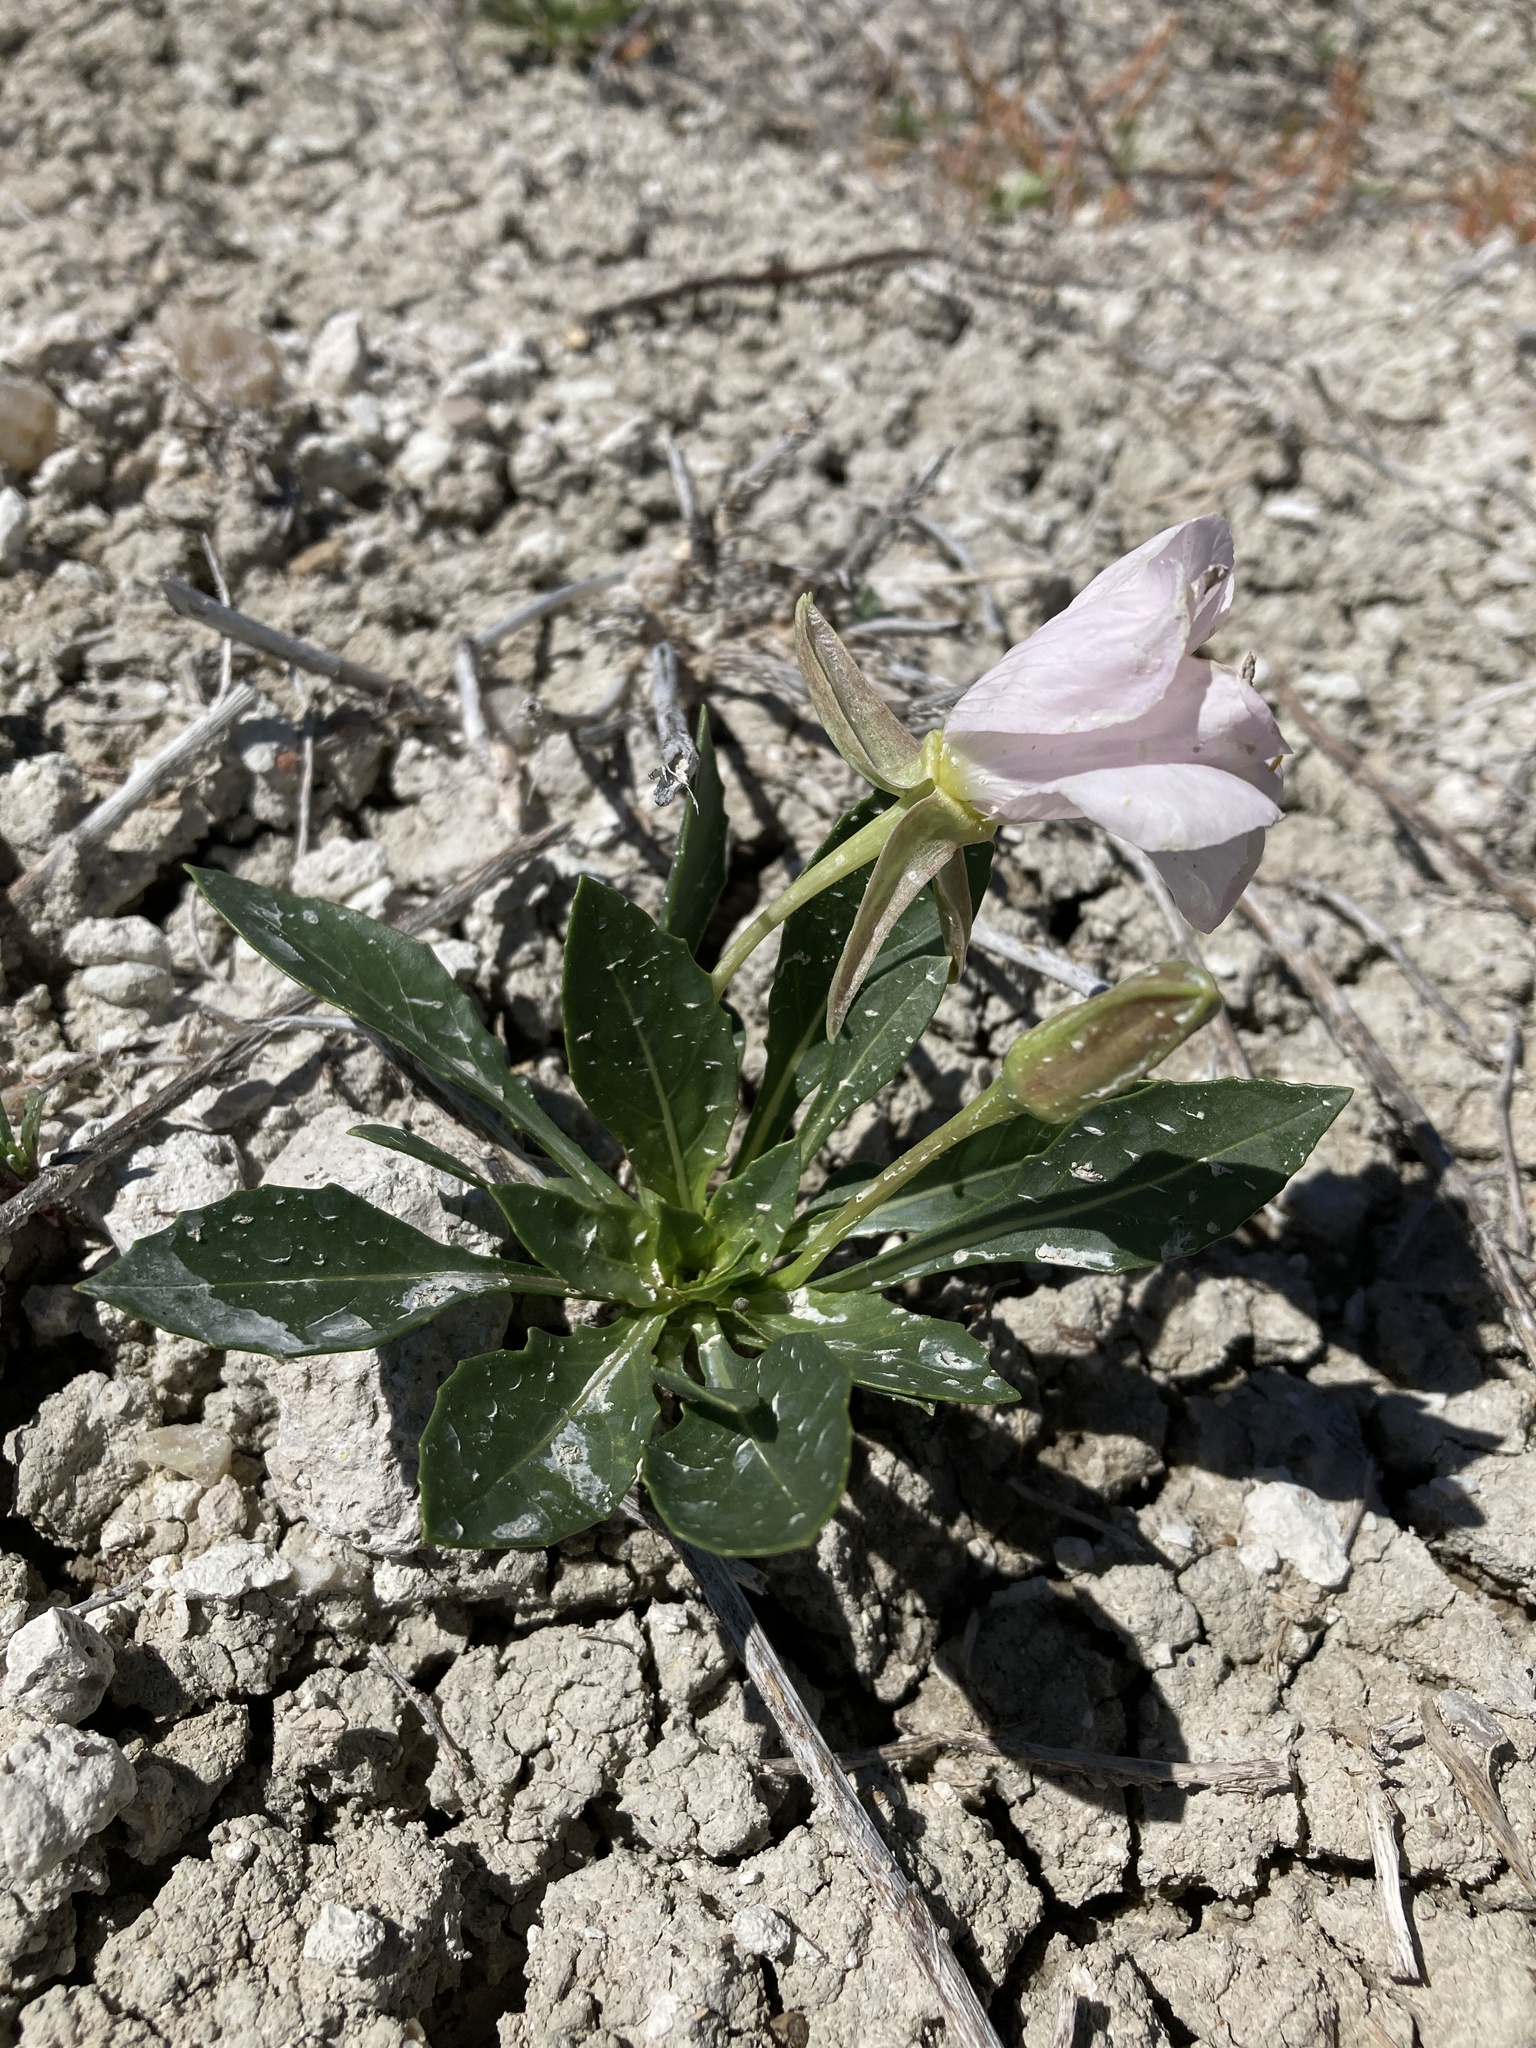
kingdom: Plantae
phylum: Tracheophyta
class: Magnoliopsida
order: Myrtales
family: Onagraceae
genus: Oenothera
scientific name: Oenothera cespitosa
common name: Tufted evening-primrose
